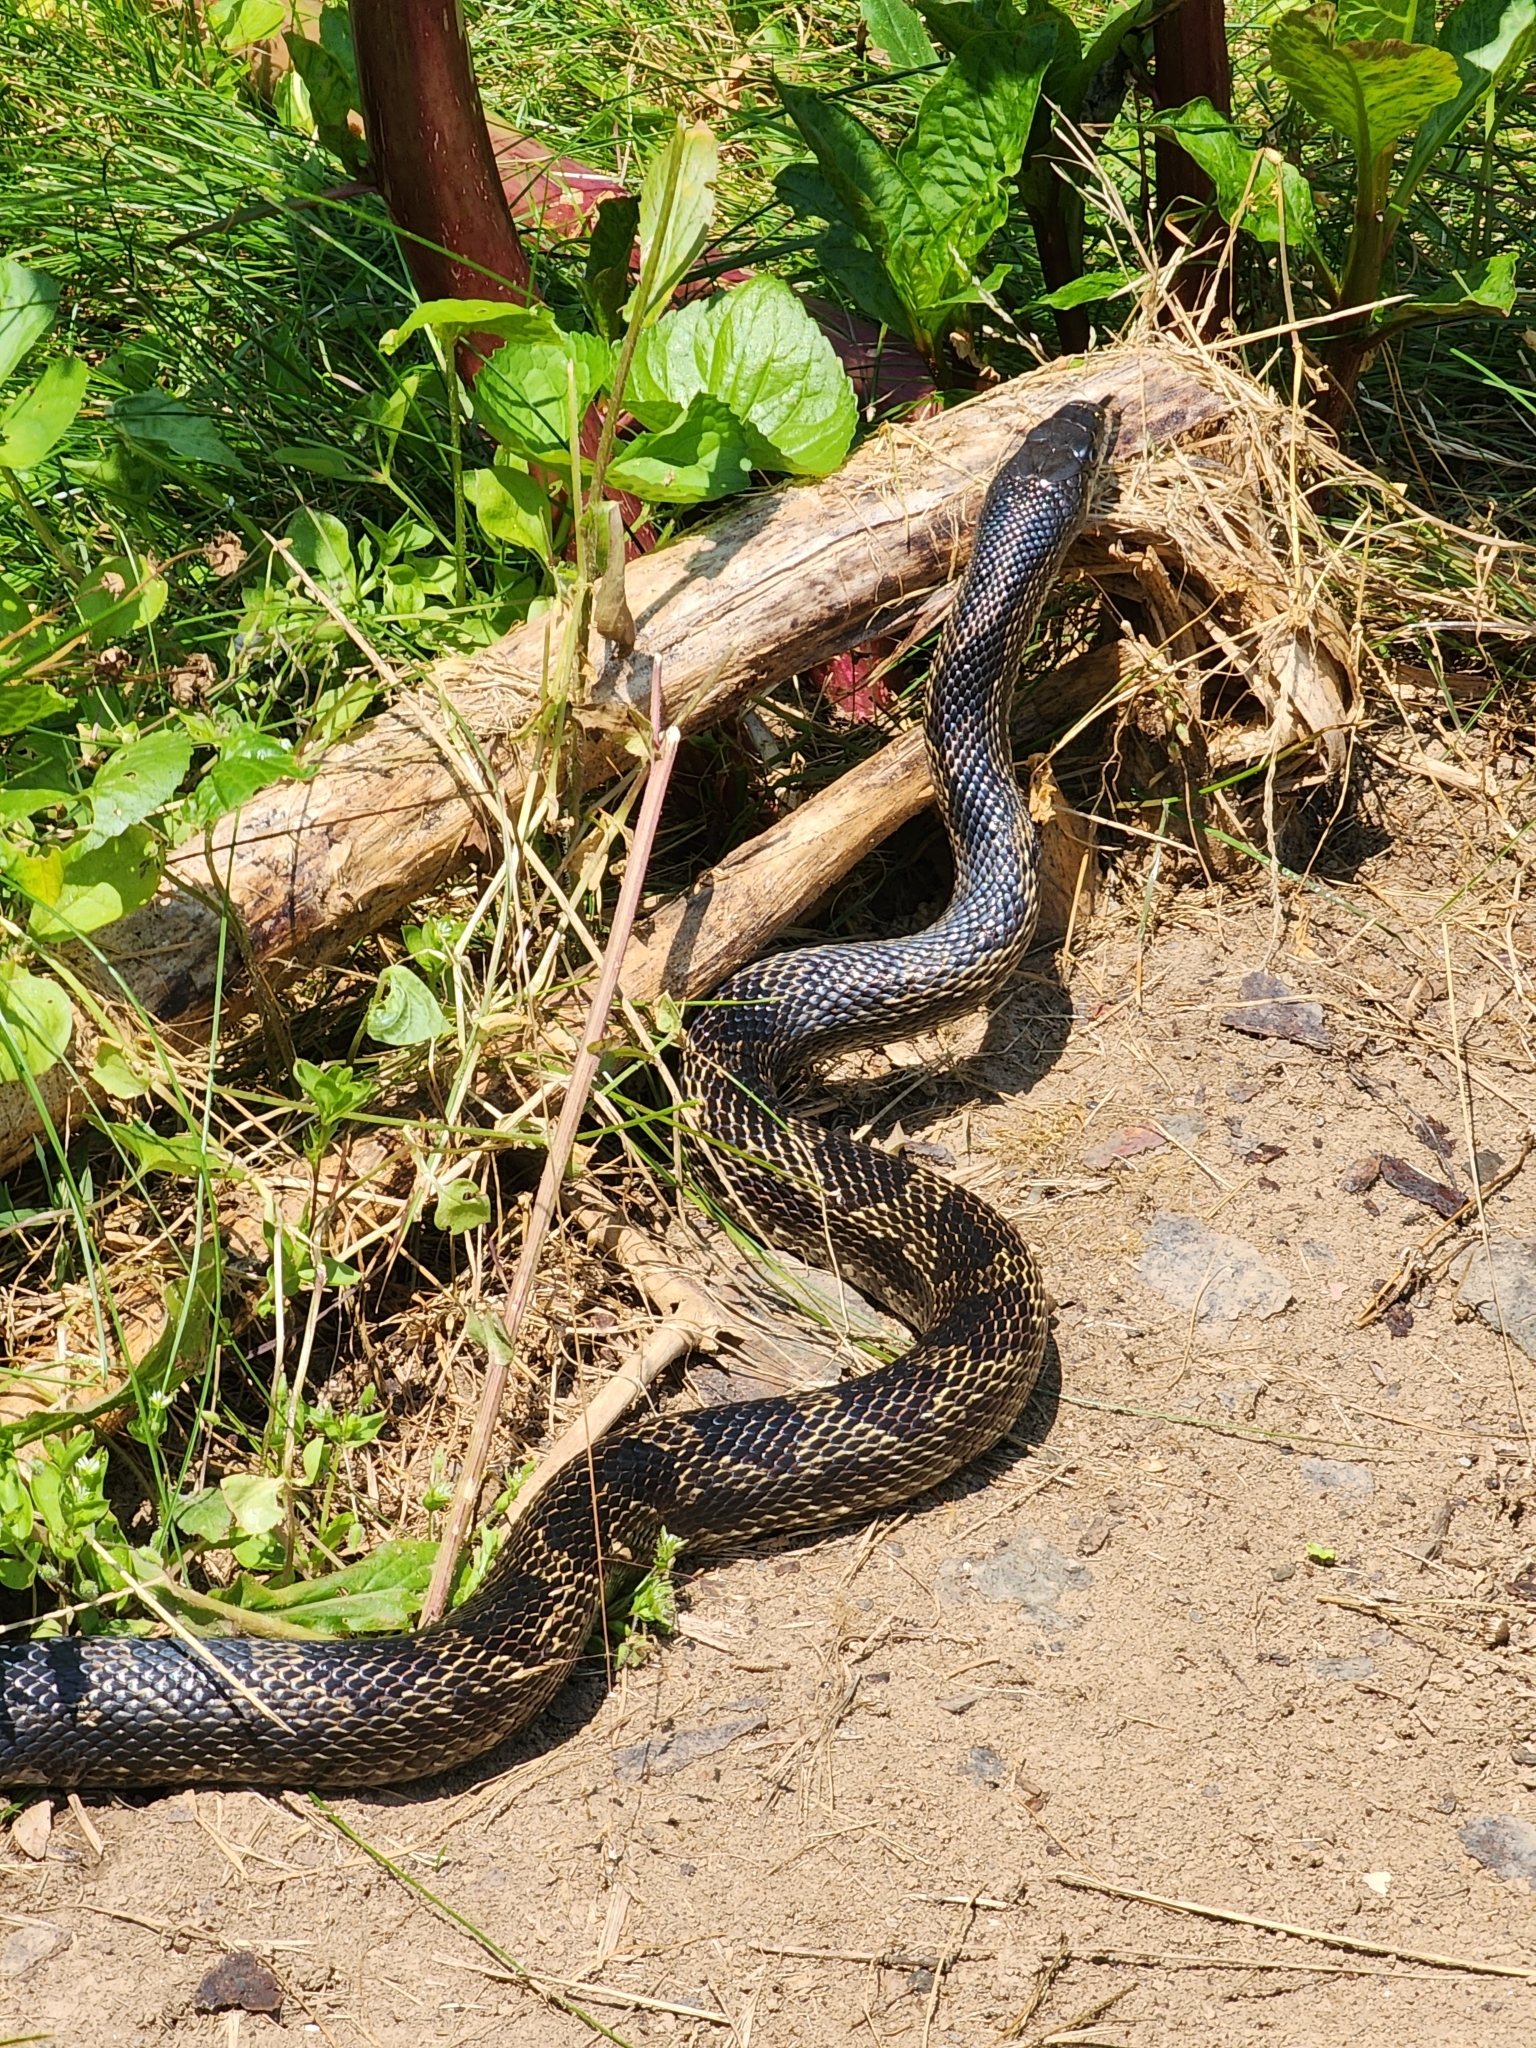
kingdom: Animalia
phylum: Chordata
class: Squamata
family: Colubridae
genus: Pantherophis
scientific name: Pantherophis spiloides
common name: Gray rat snake
